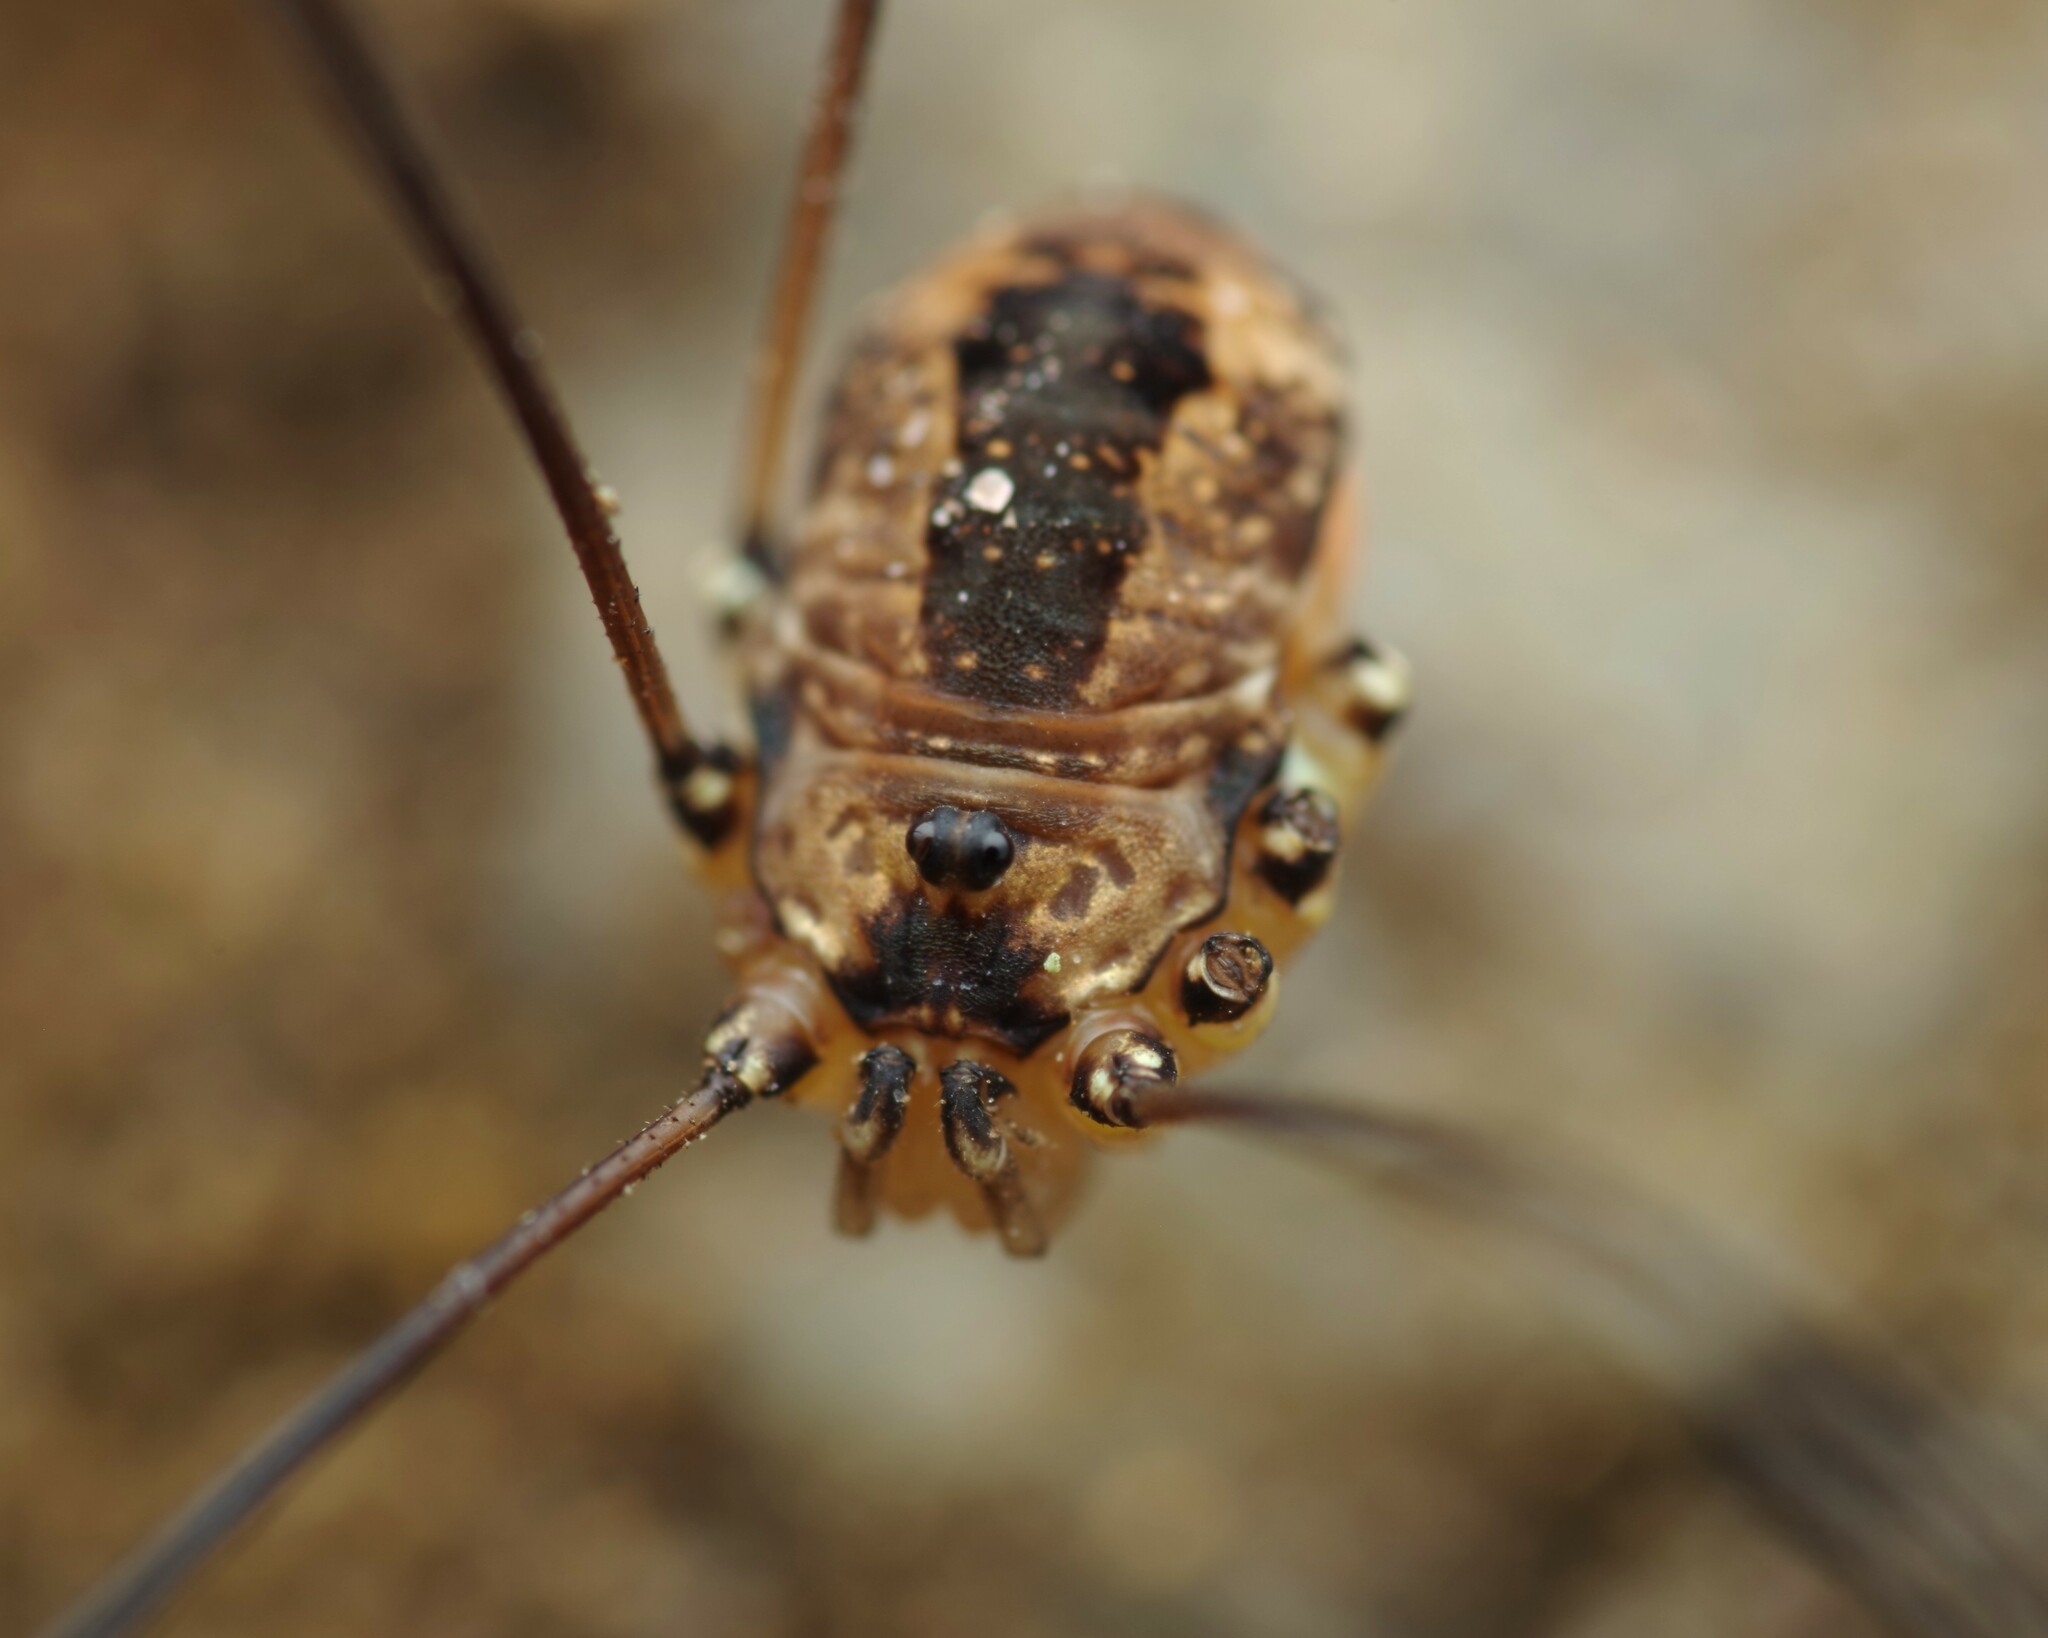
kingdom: Animalia
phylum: Arthropoda
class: Arachnida
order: Opiliones
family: Sclerosomatidae
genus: Leiobunum
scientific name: Leiobunum rotundum
